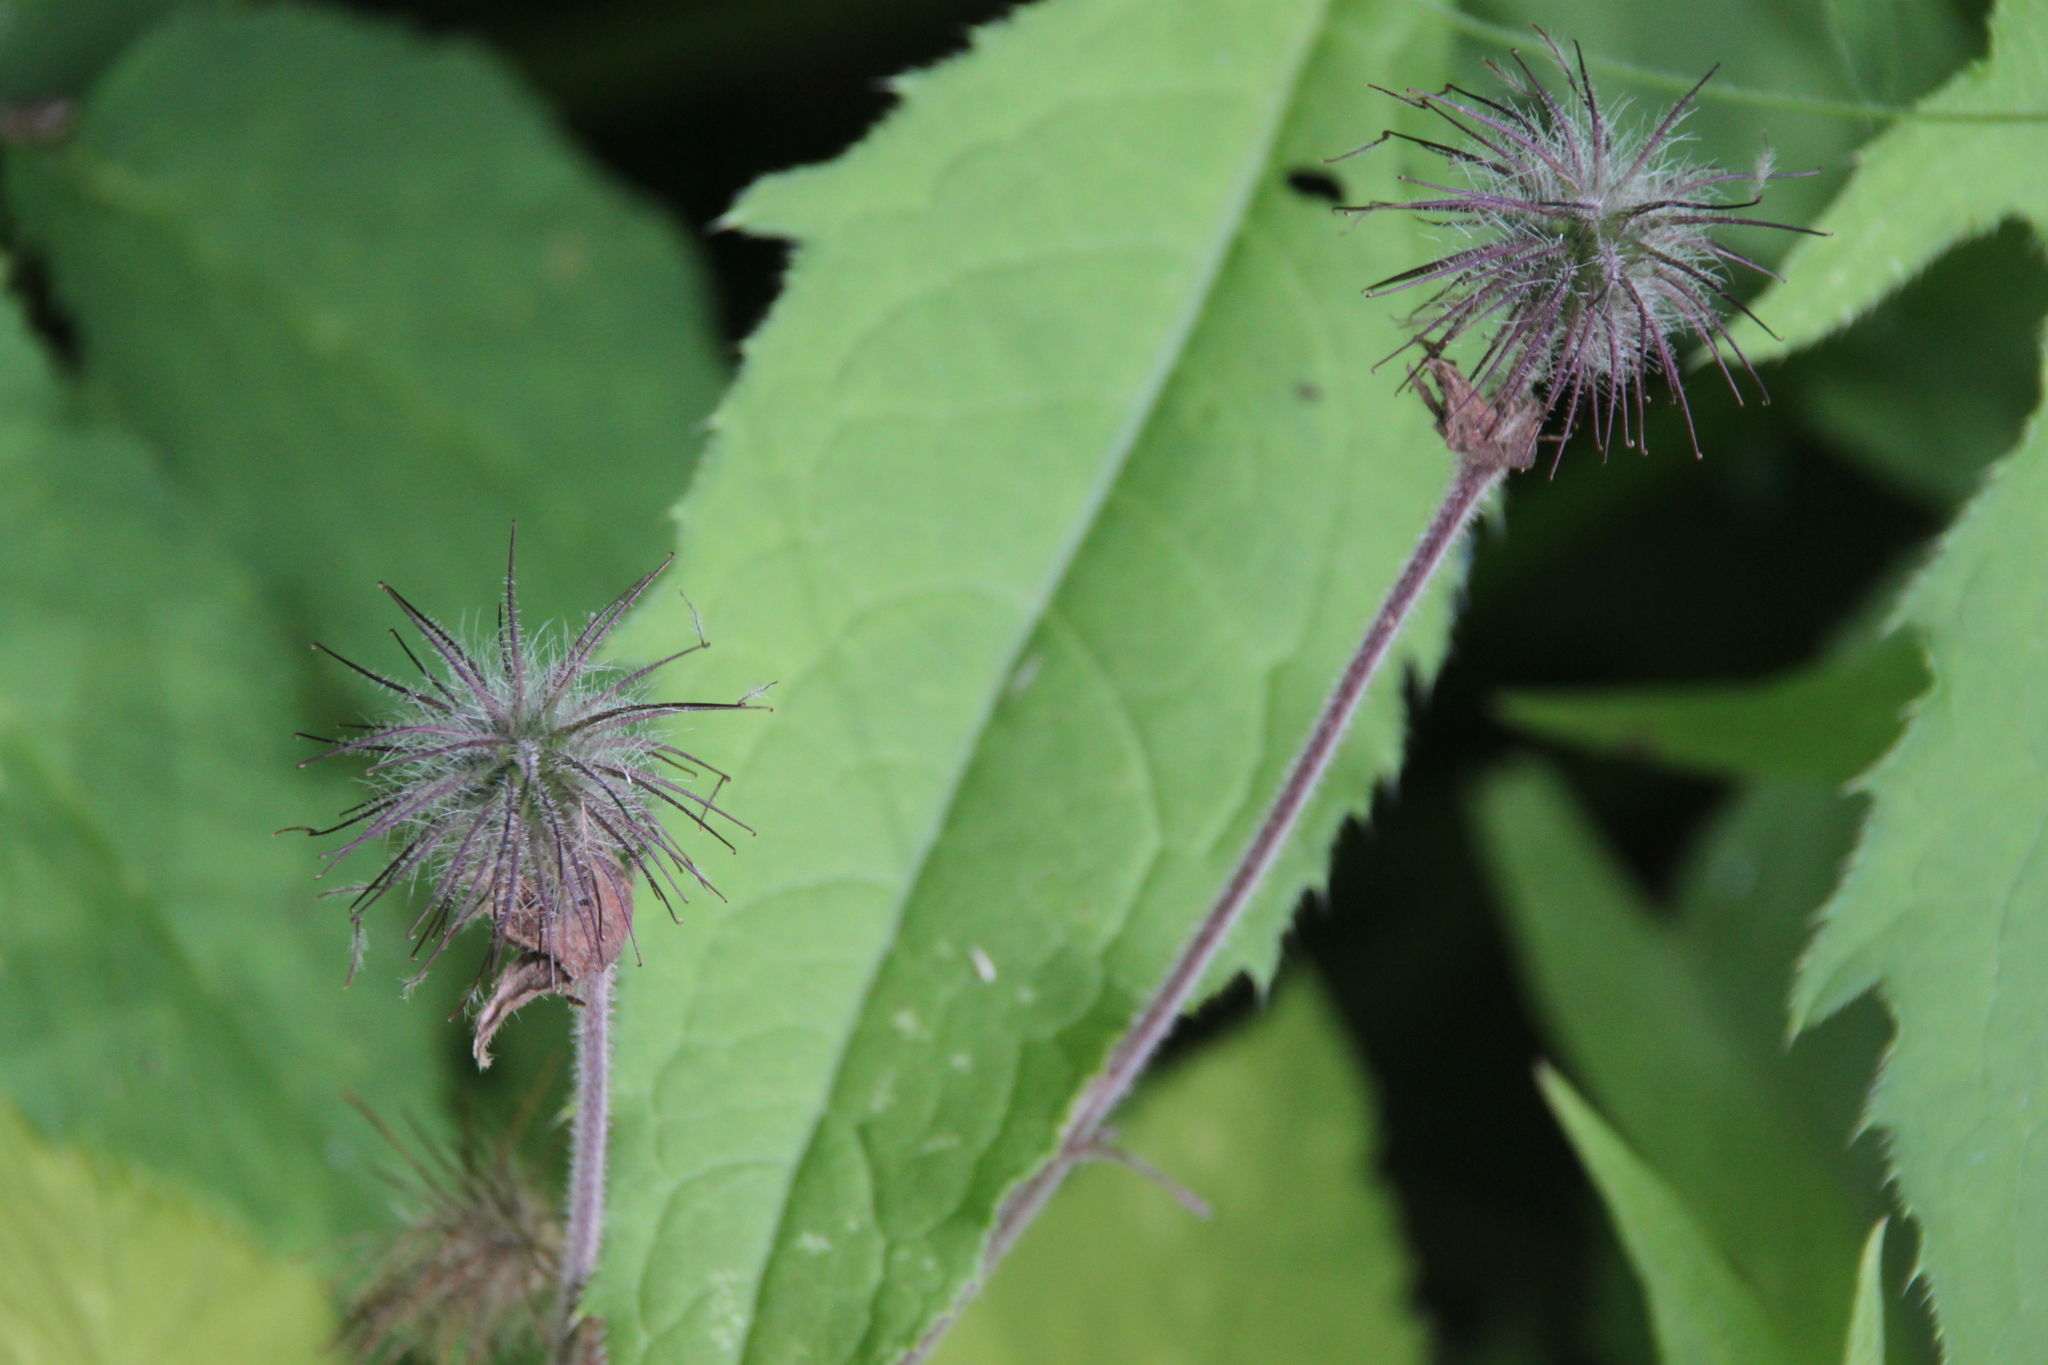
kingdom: Plantae
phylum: Tracheophyta
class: Magnoliopsida
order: Rosales
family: Rosaceae
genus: Geum
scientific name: Geum rivale
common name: Water avens
